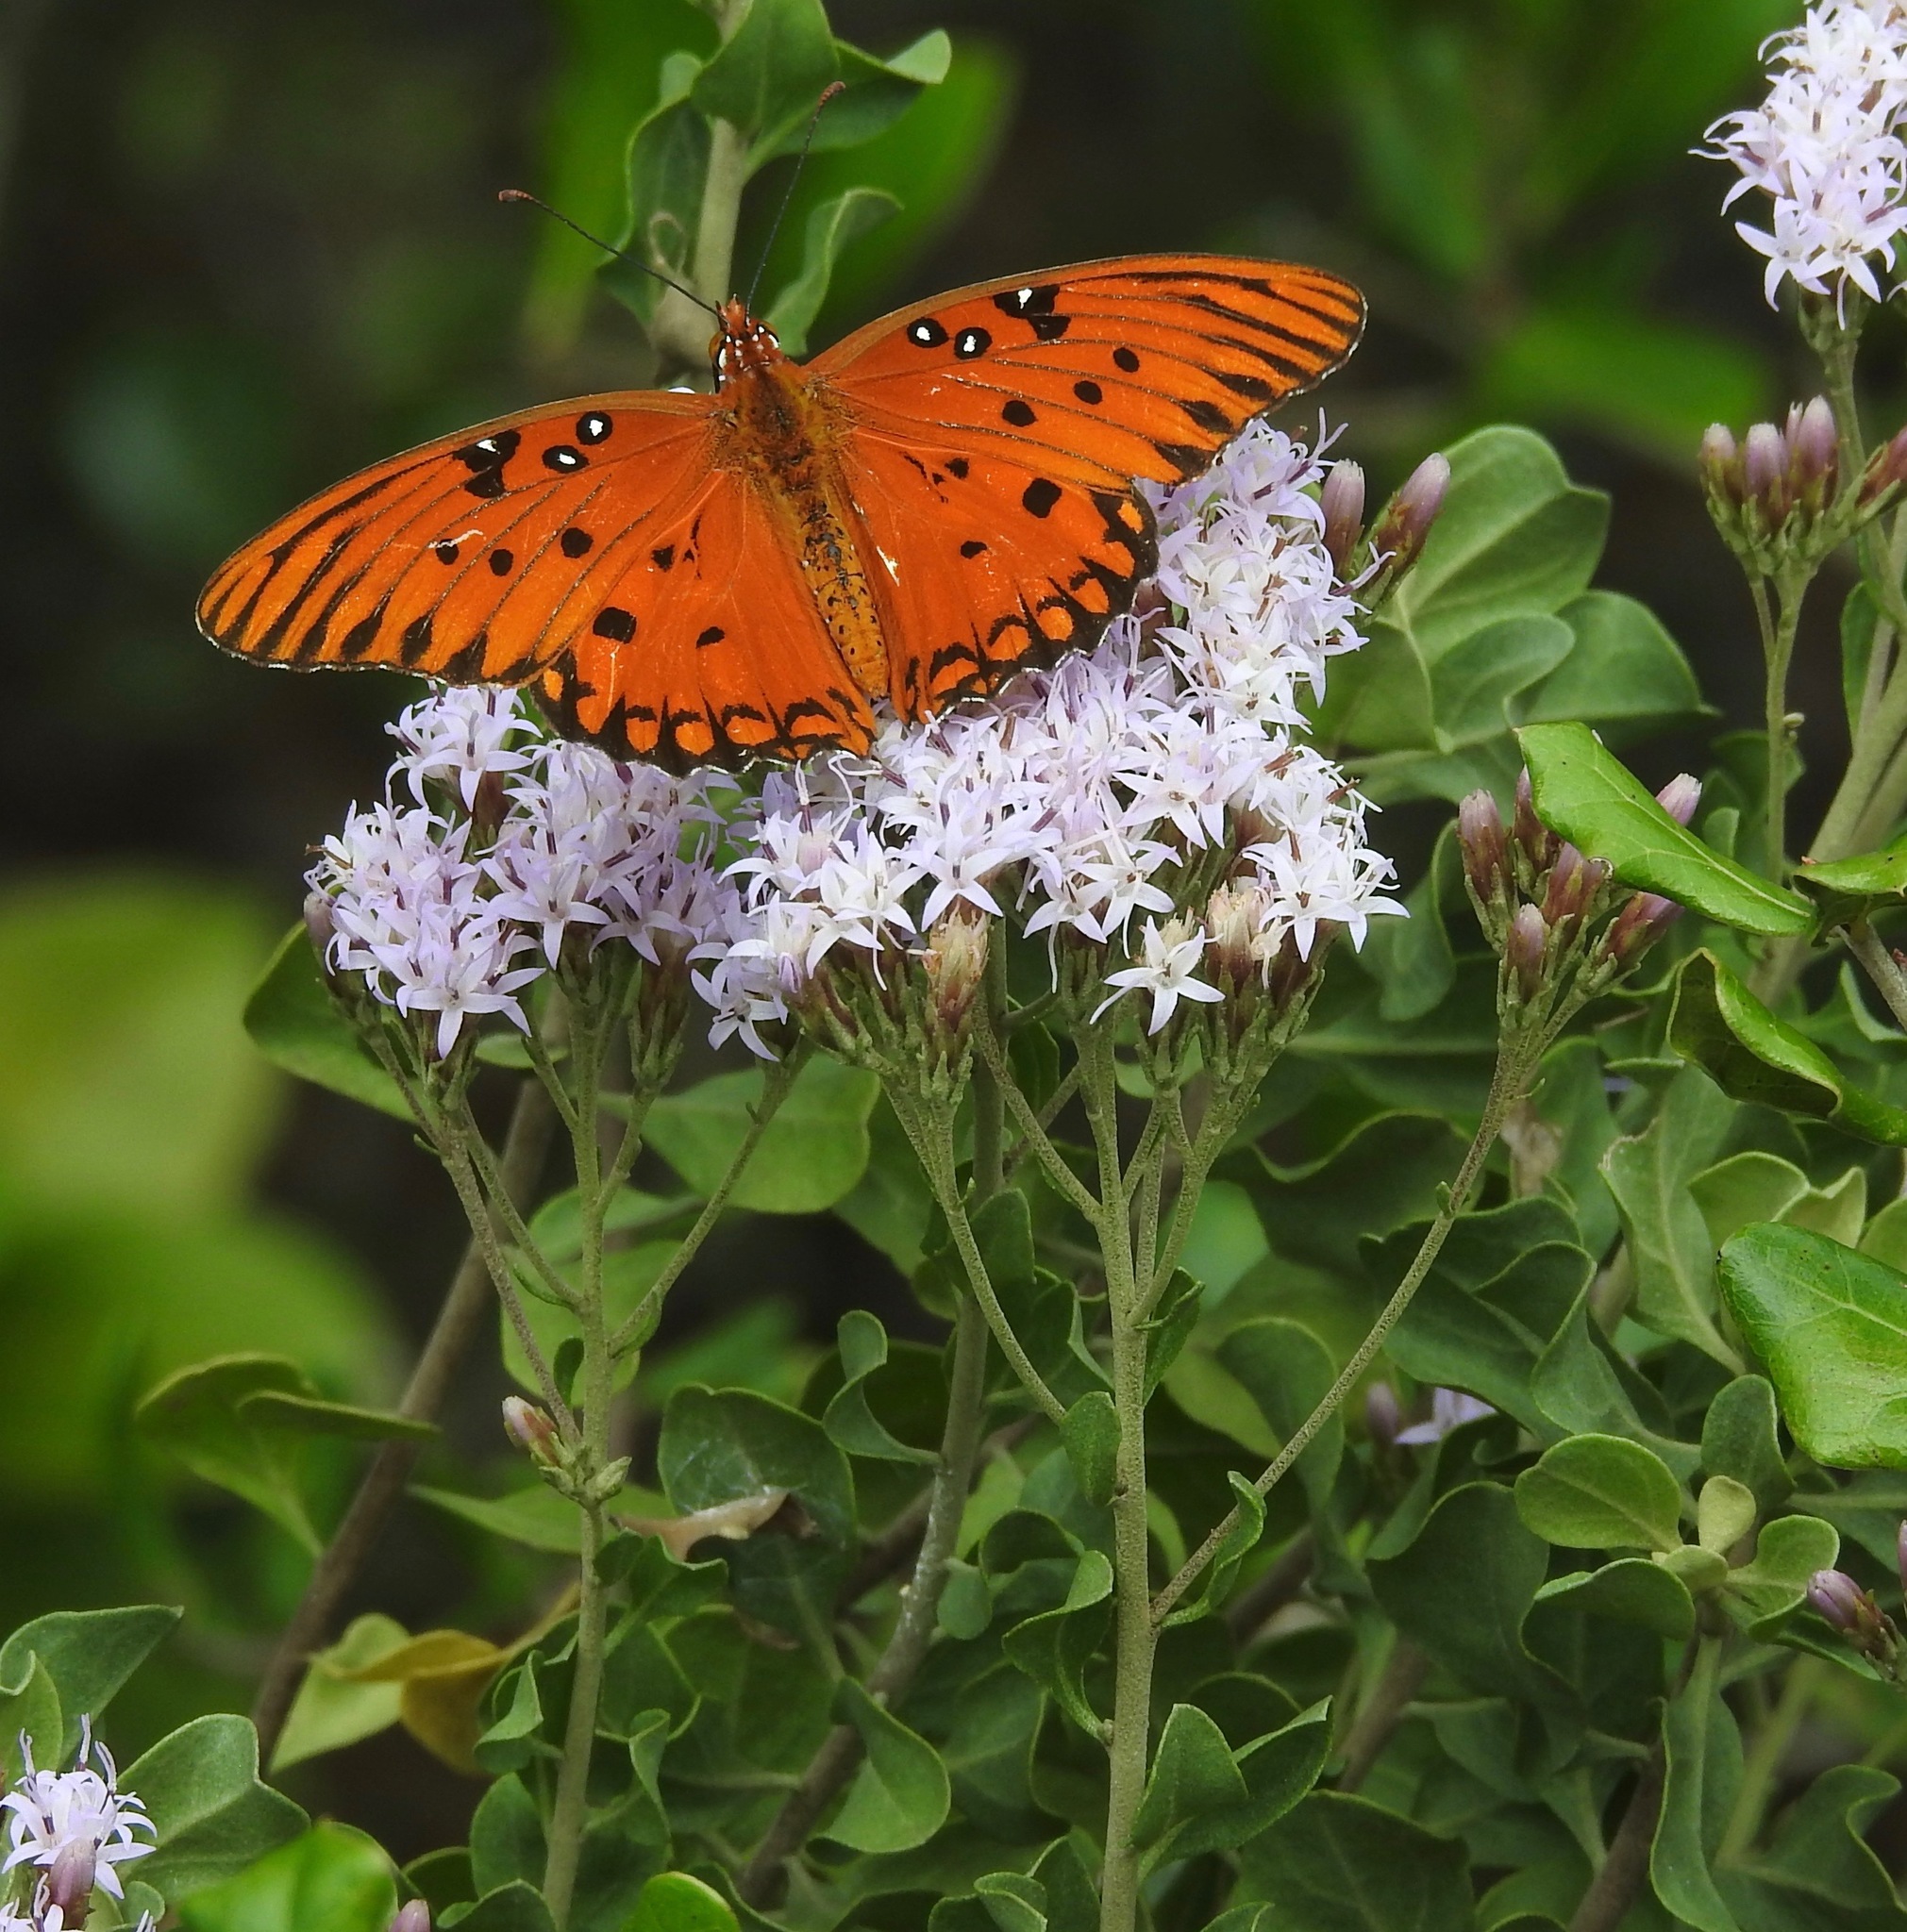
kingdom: Animalia
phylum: Arthropoda
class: Insecta
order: Lepidoptera
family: Nymphalidae
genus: Dione
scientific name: Dione vanillae
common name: Gulf fritillary
